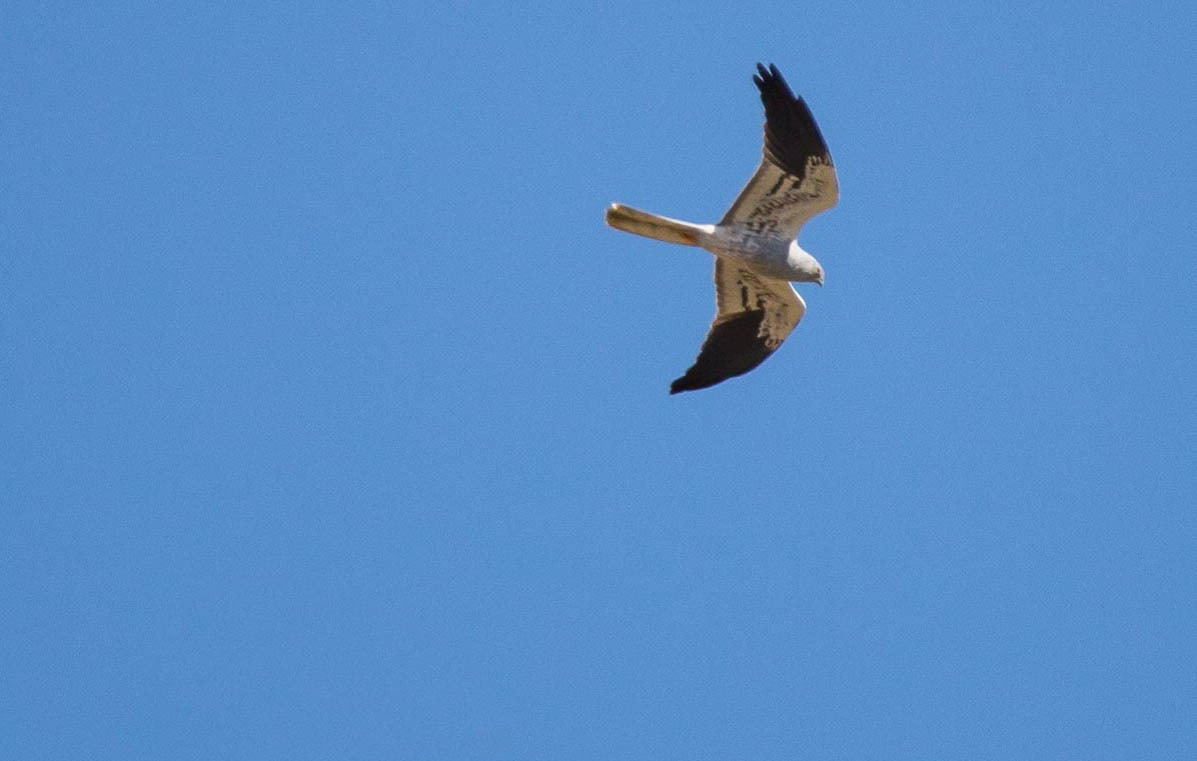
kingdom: Animalia
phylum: Chordata
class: Aves
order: Accipitriformes
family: Accipitridae
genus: Circus
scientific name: Circus pygargus
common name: Montagu's harrier
